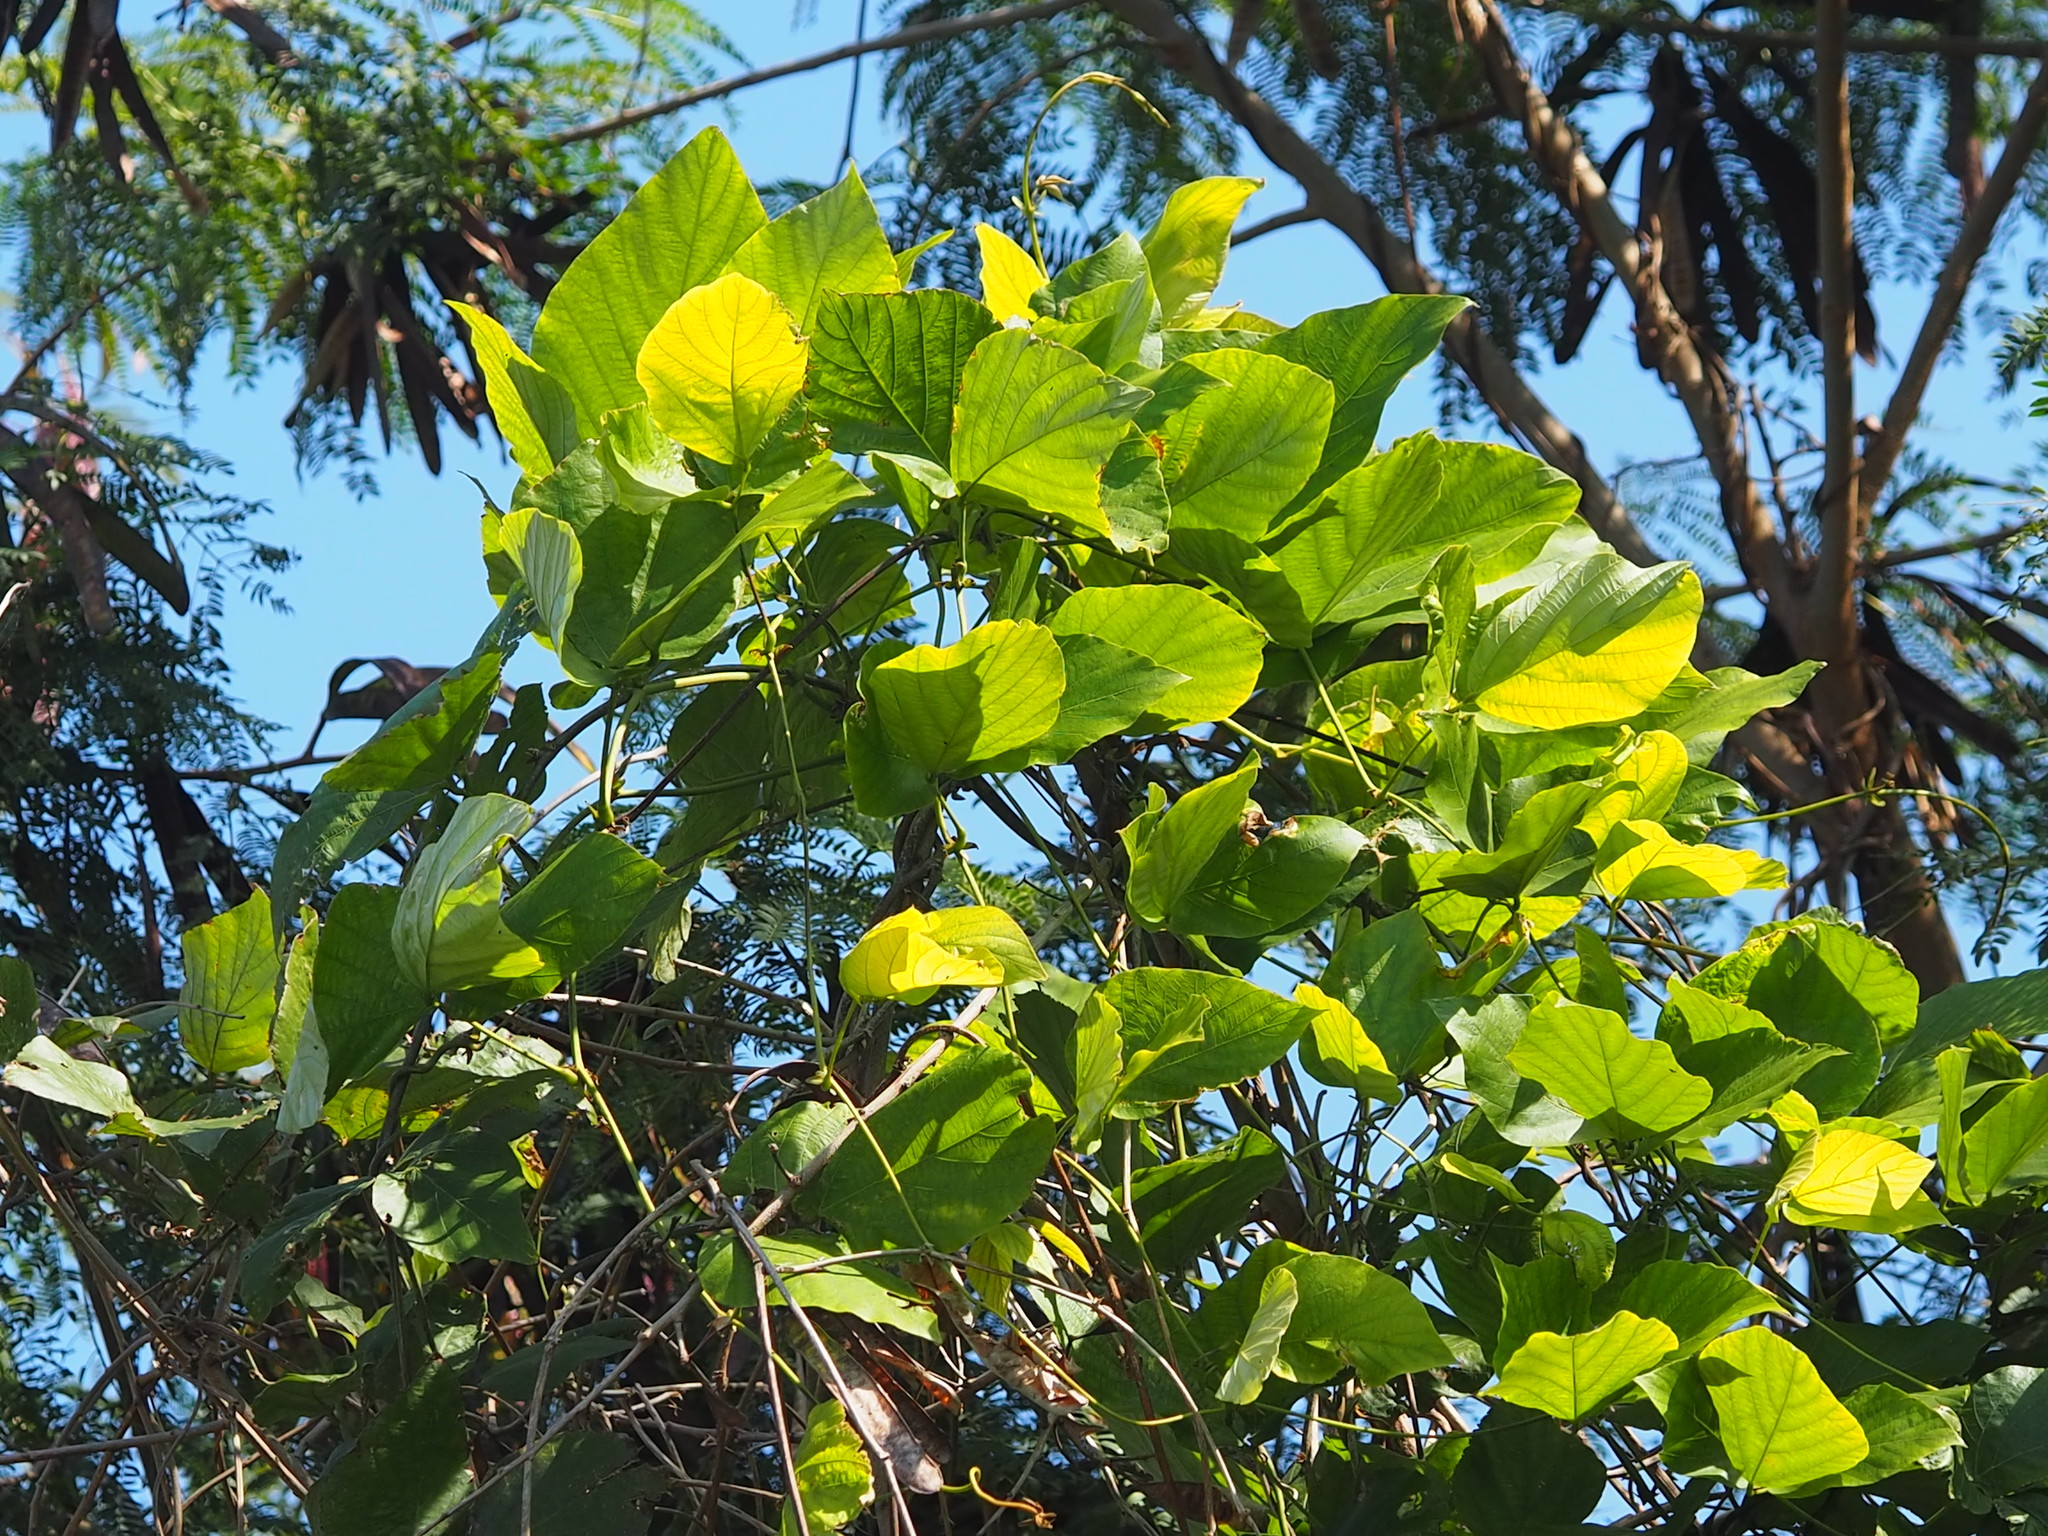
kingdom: Plantae
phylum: Tracheophyta
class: Magnoliopsida
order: Fabales
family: Fabaceae
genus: Pueraria
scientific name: Pueraria montana
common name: Kudzu
